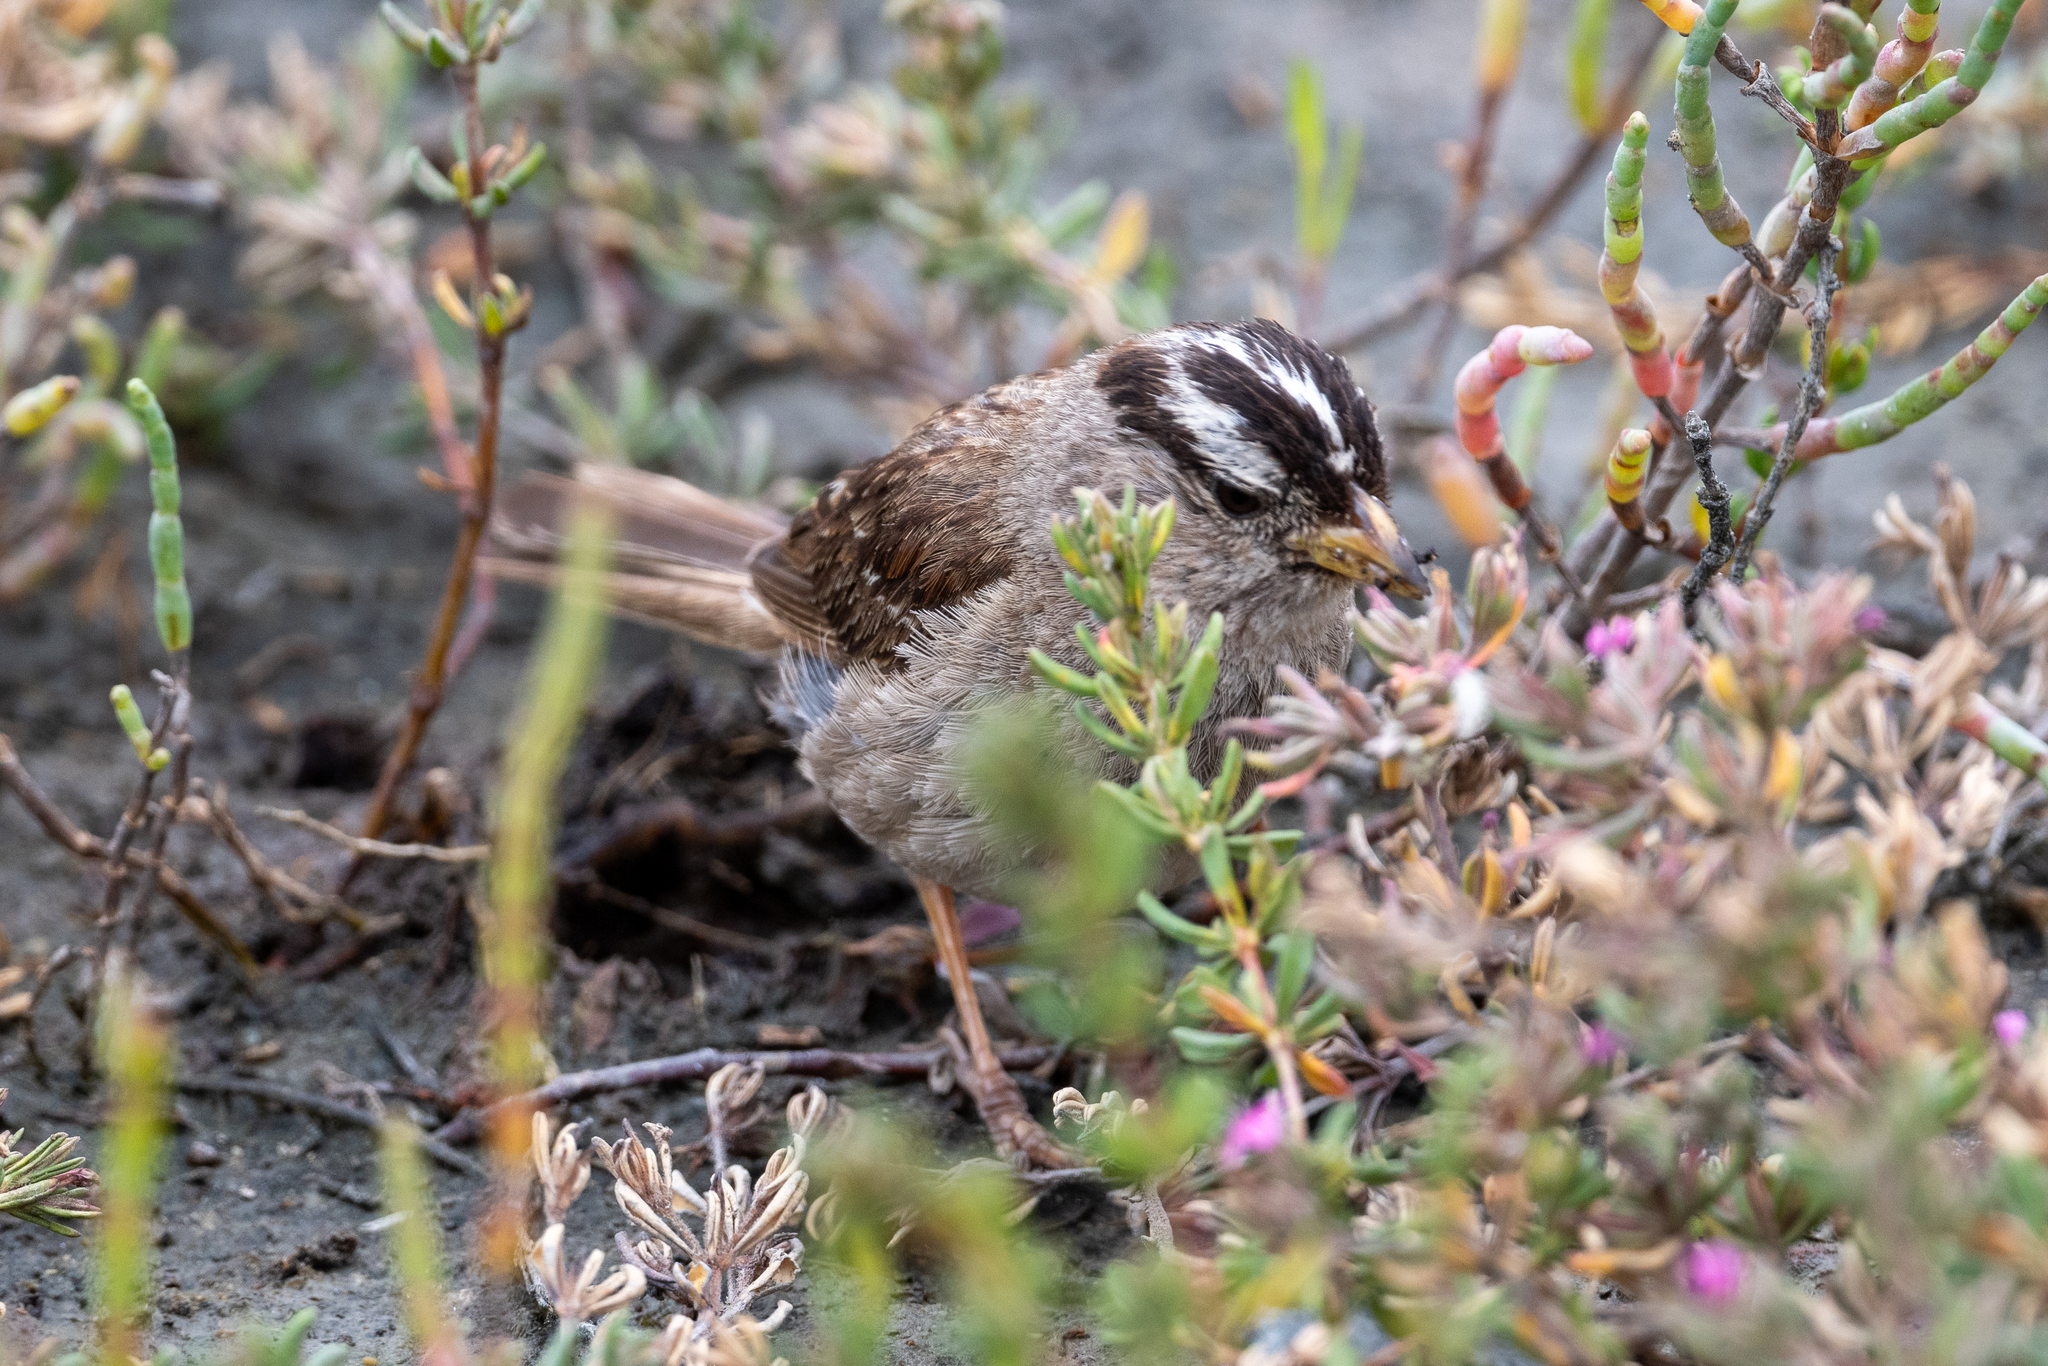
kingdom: Animalia
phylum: Chordata
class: Aves
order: Passeriformes
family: Passerellidae
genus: Zonotrichia
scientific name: Zonotrichia leucophrys
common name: White-crowned sparrow
